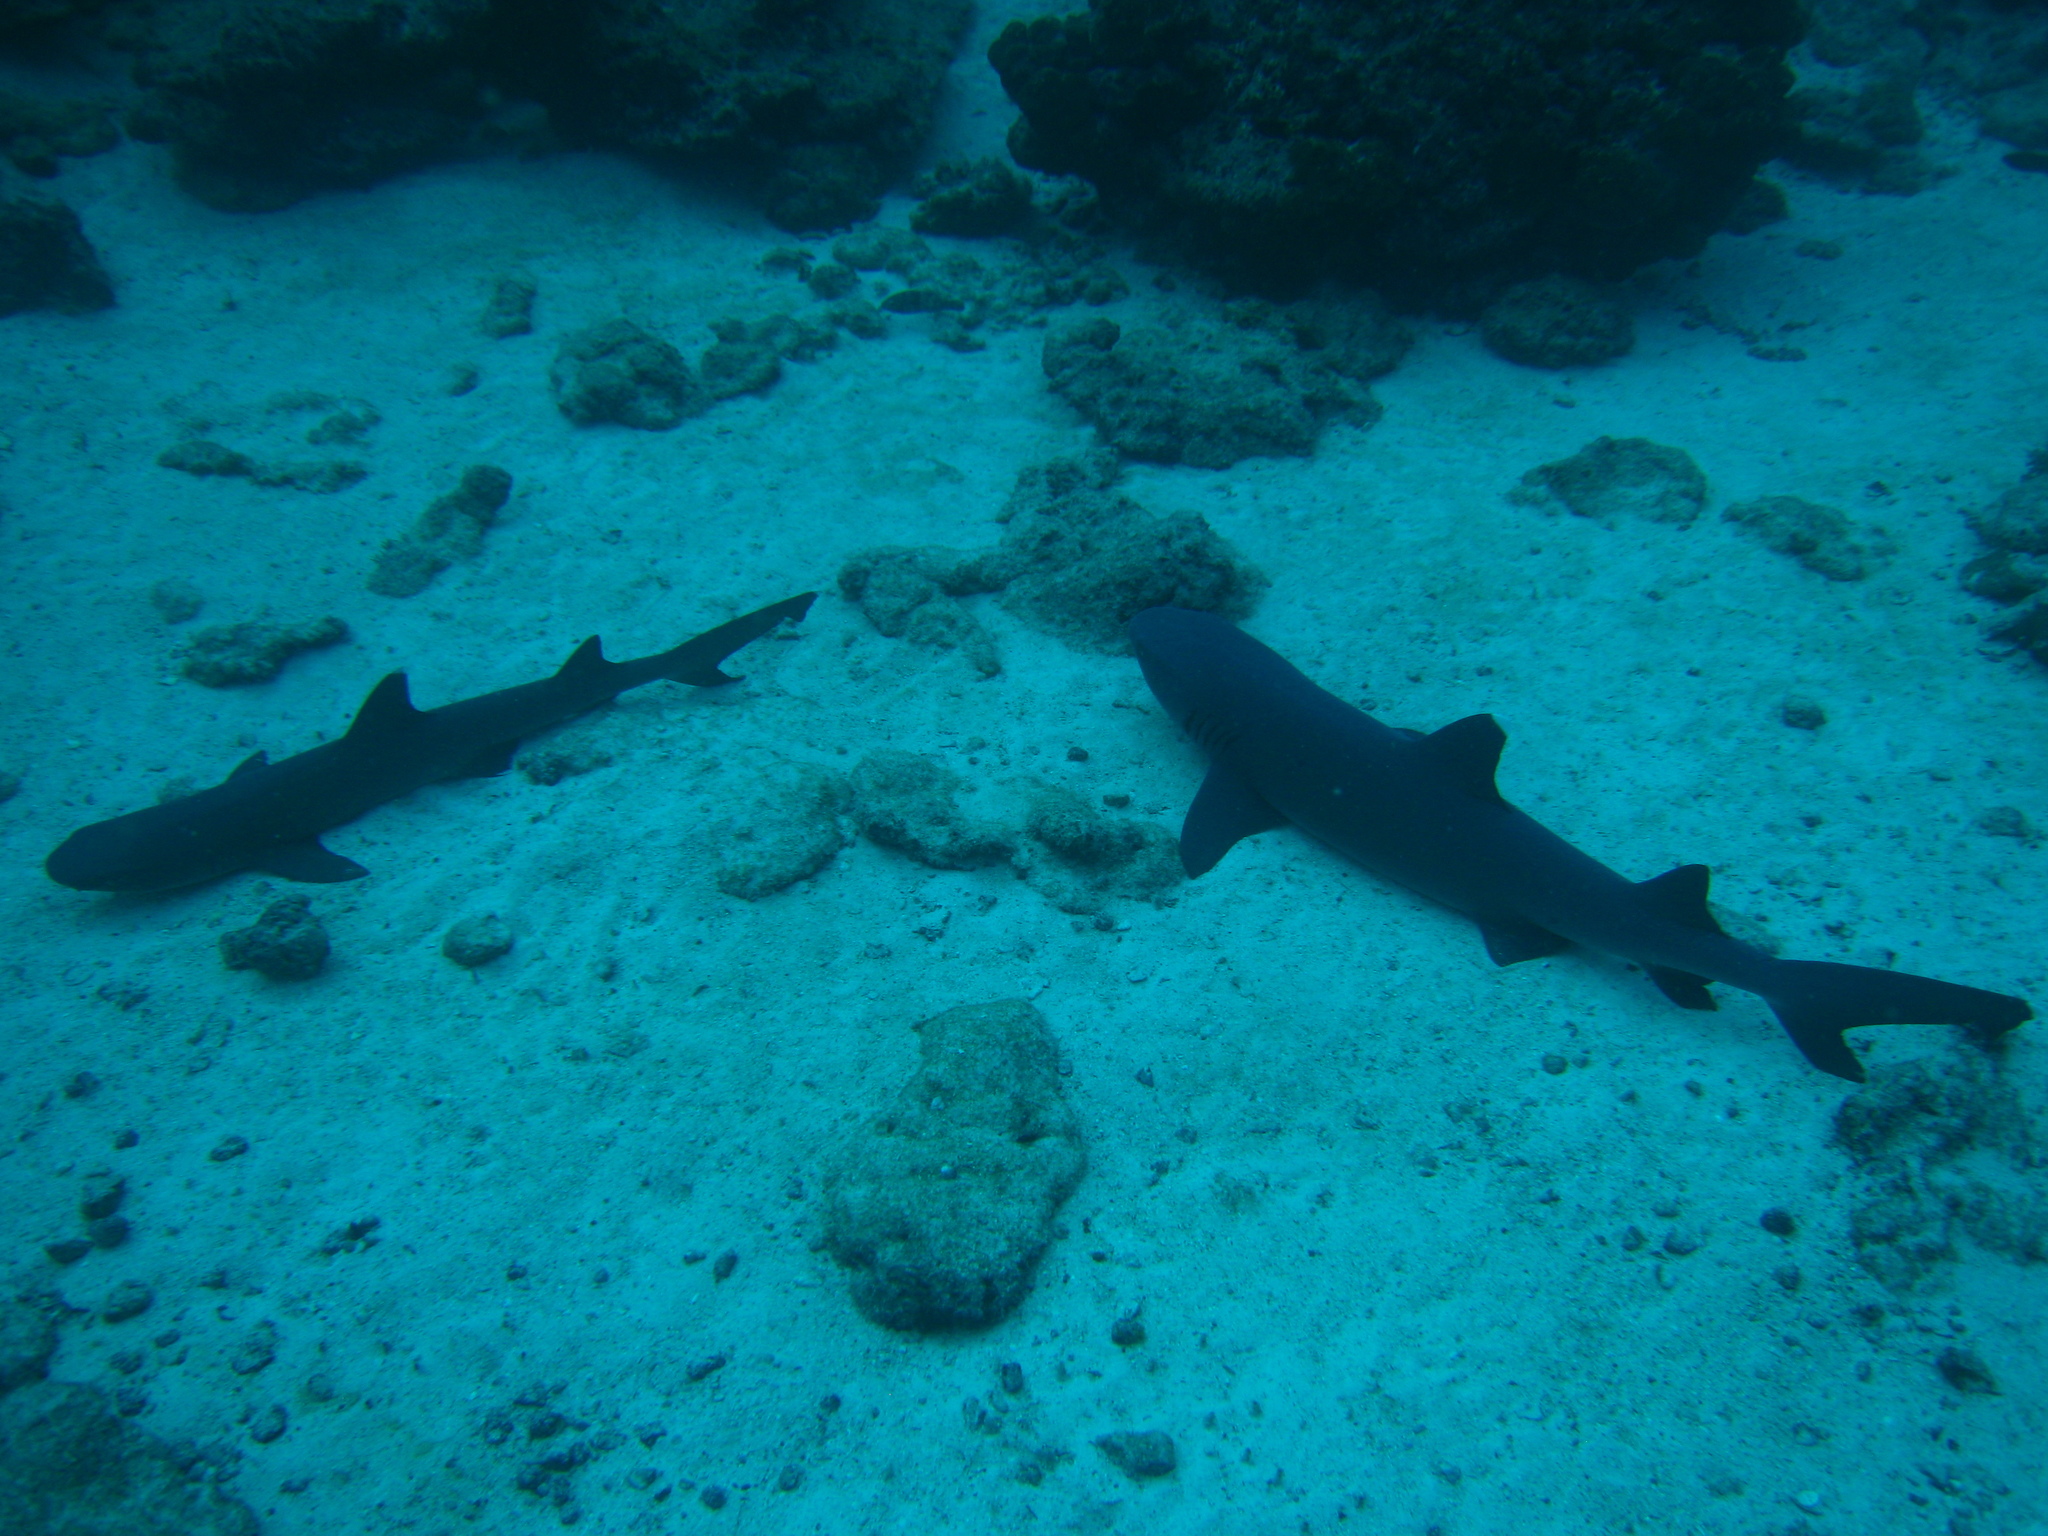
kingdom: Animalia
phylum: Chordata
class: Elasmobranchii
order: Carcharhiniformes
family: Carcharhinidae
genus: Triaenodon
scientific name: Triaenodon obesus
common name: Whitetip reef shark
